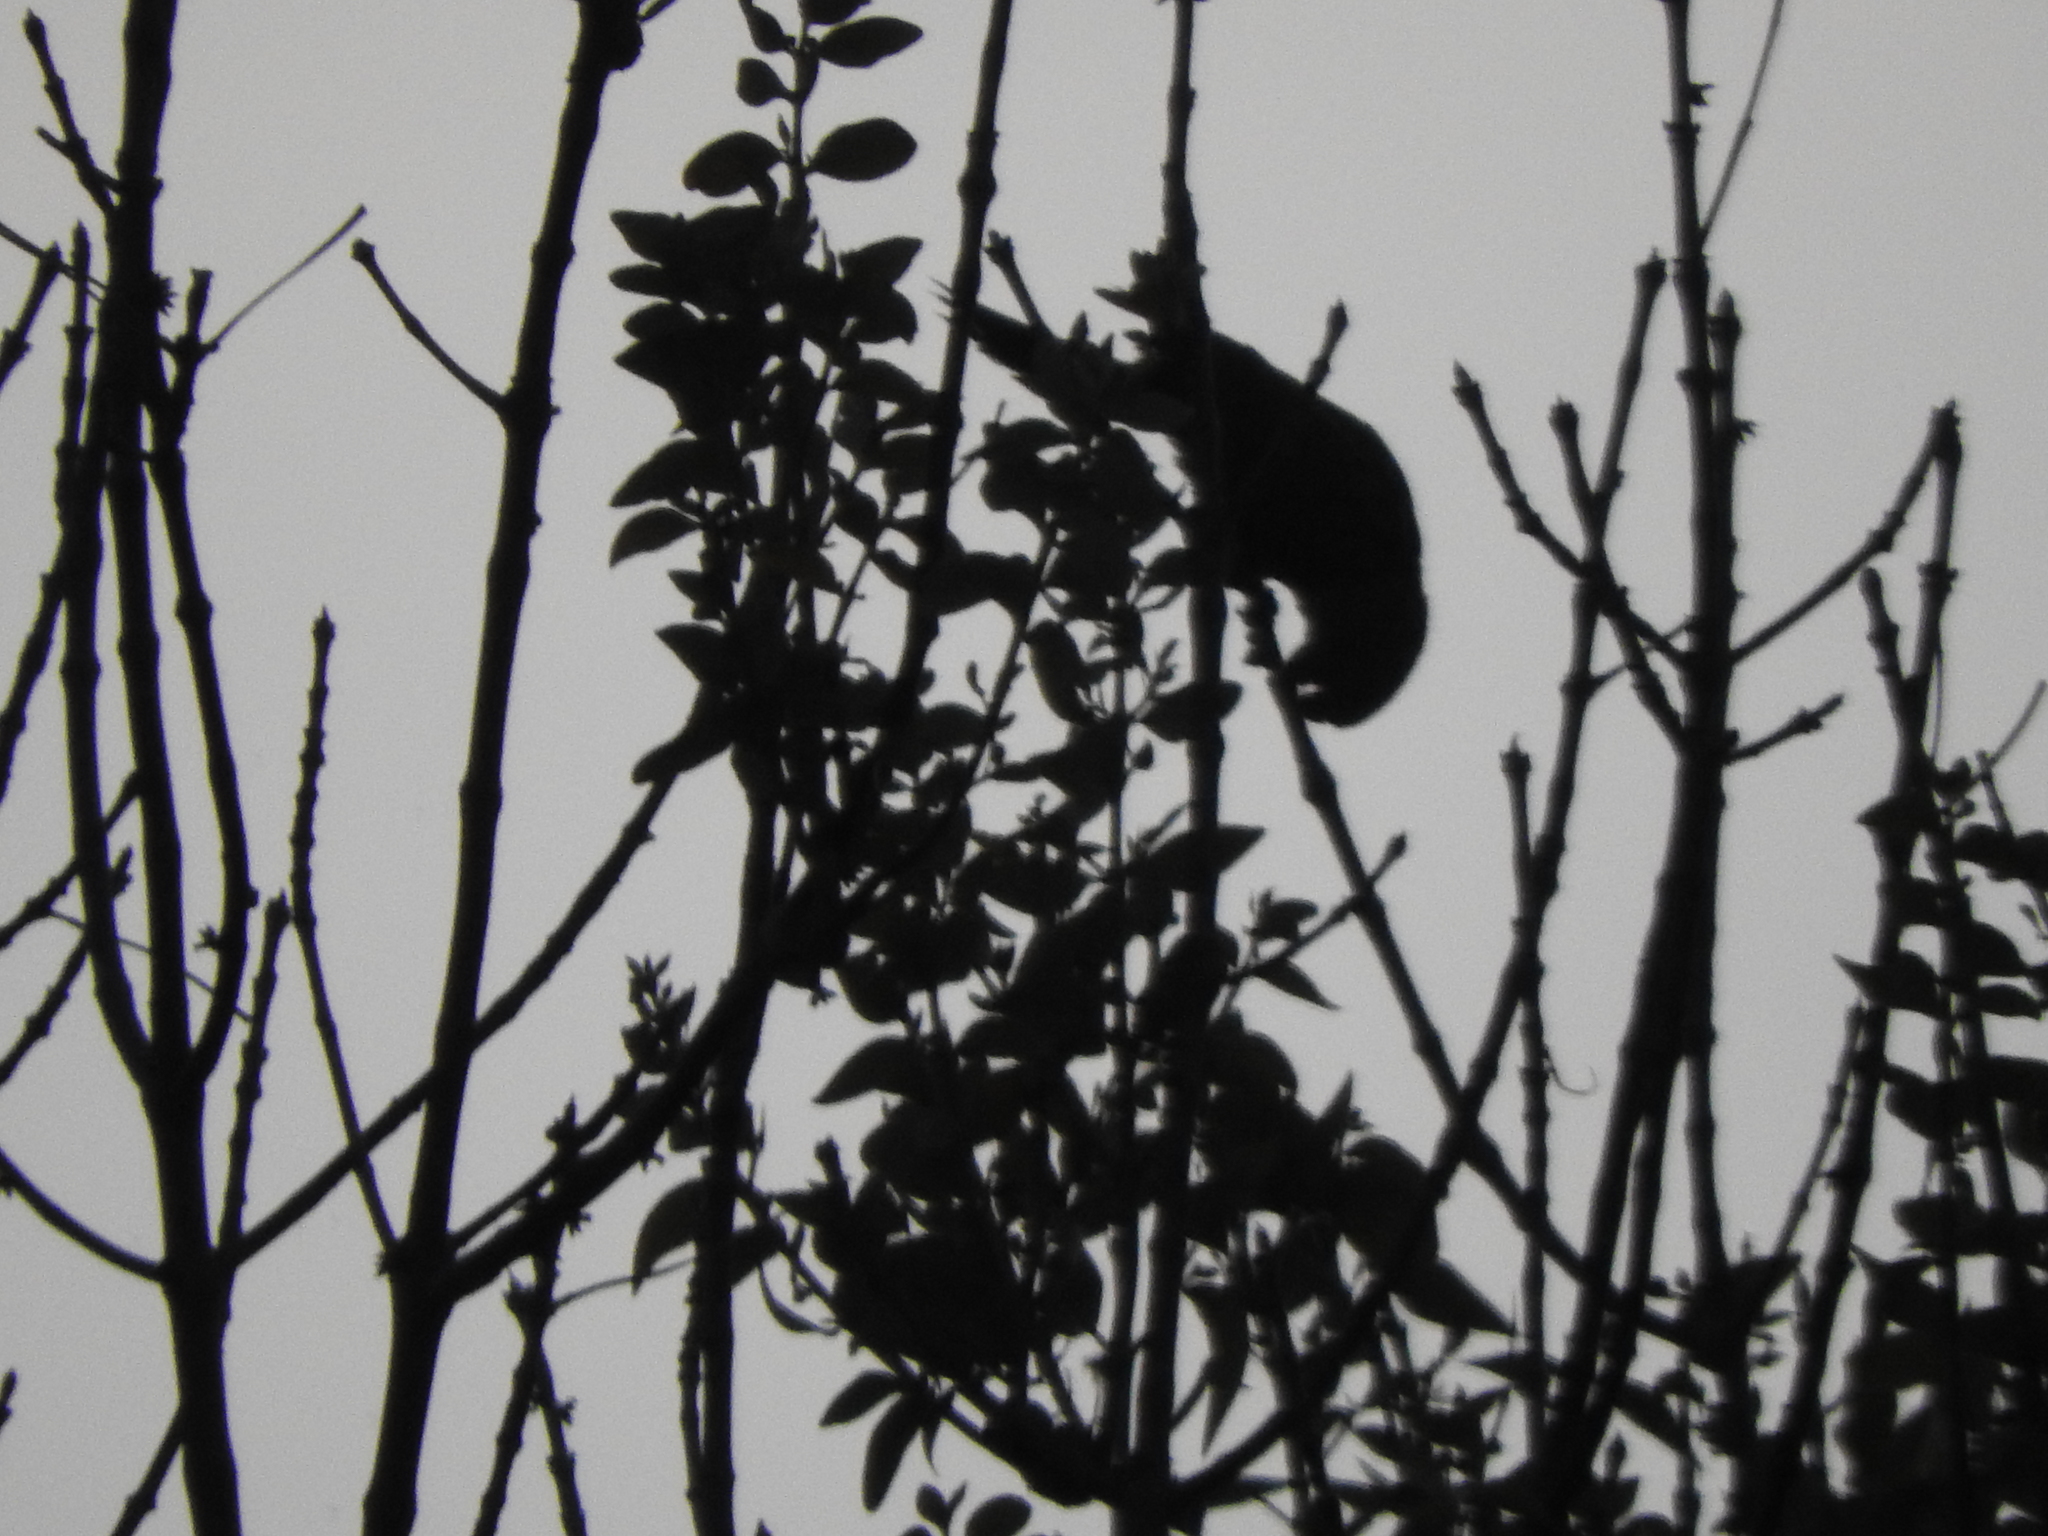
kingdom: Animalia
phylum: Chordata
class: Aves
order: Psittaciformes
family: Psittacidae
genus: Aratinga
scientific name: Aratinga holochlora
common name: Green parakeet
